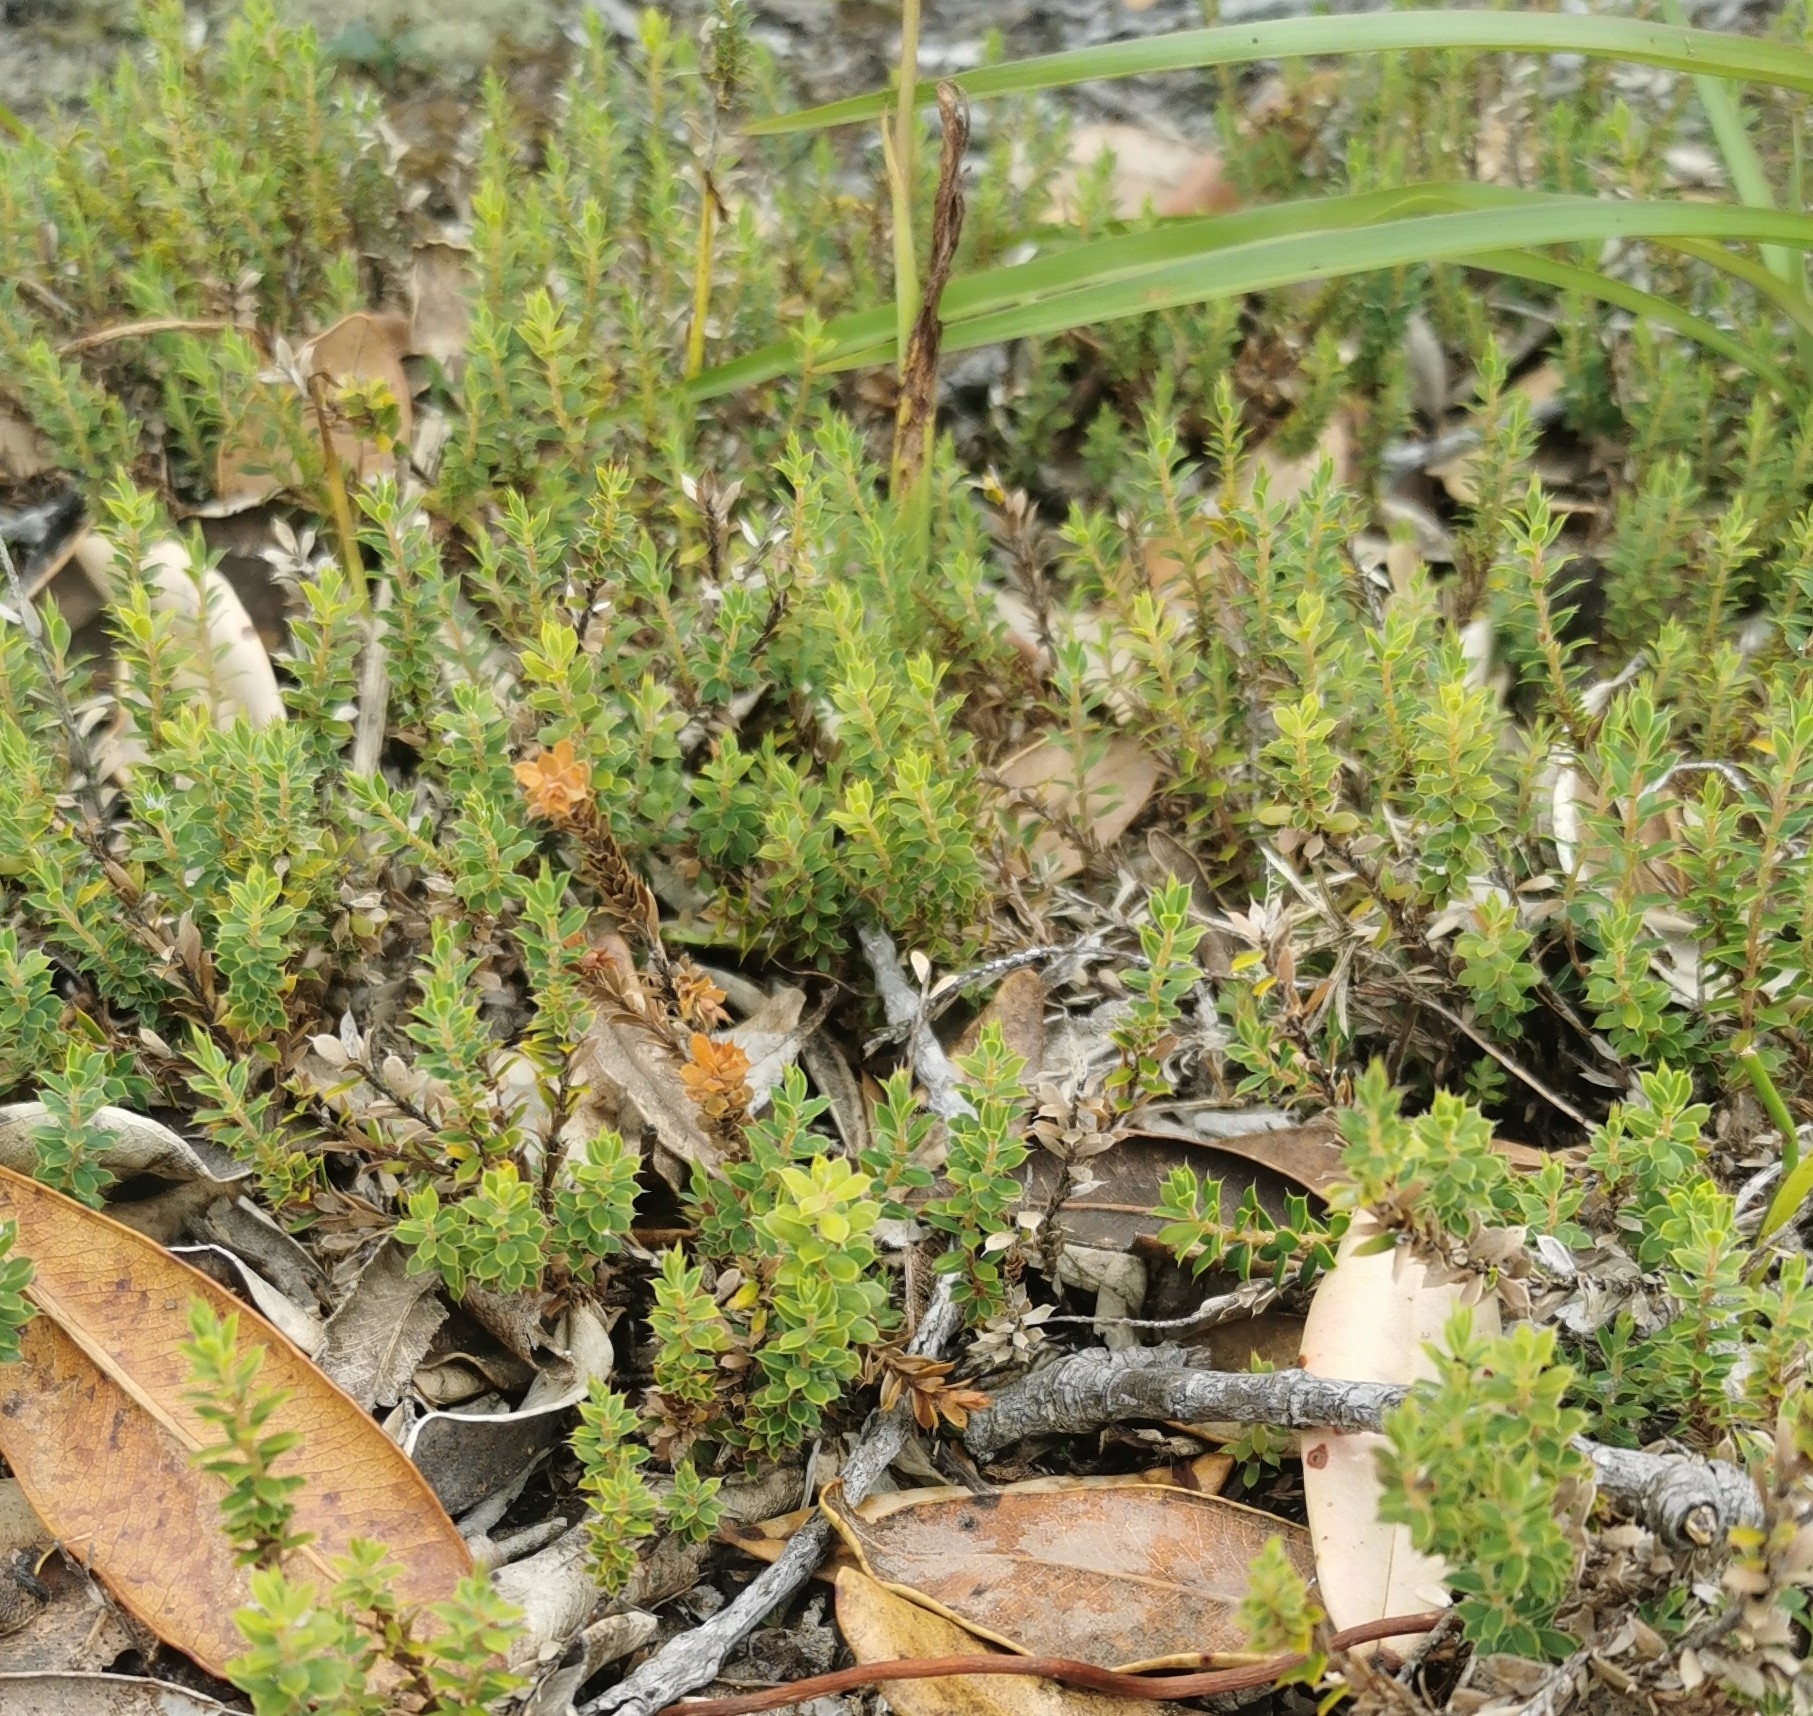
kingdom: Plantae
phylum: Tracheophyta
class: Magnoliopsida
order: Ericales
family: Ericaceae
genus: Styphelia
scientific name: Styphelia nesophila
